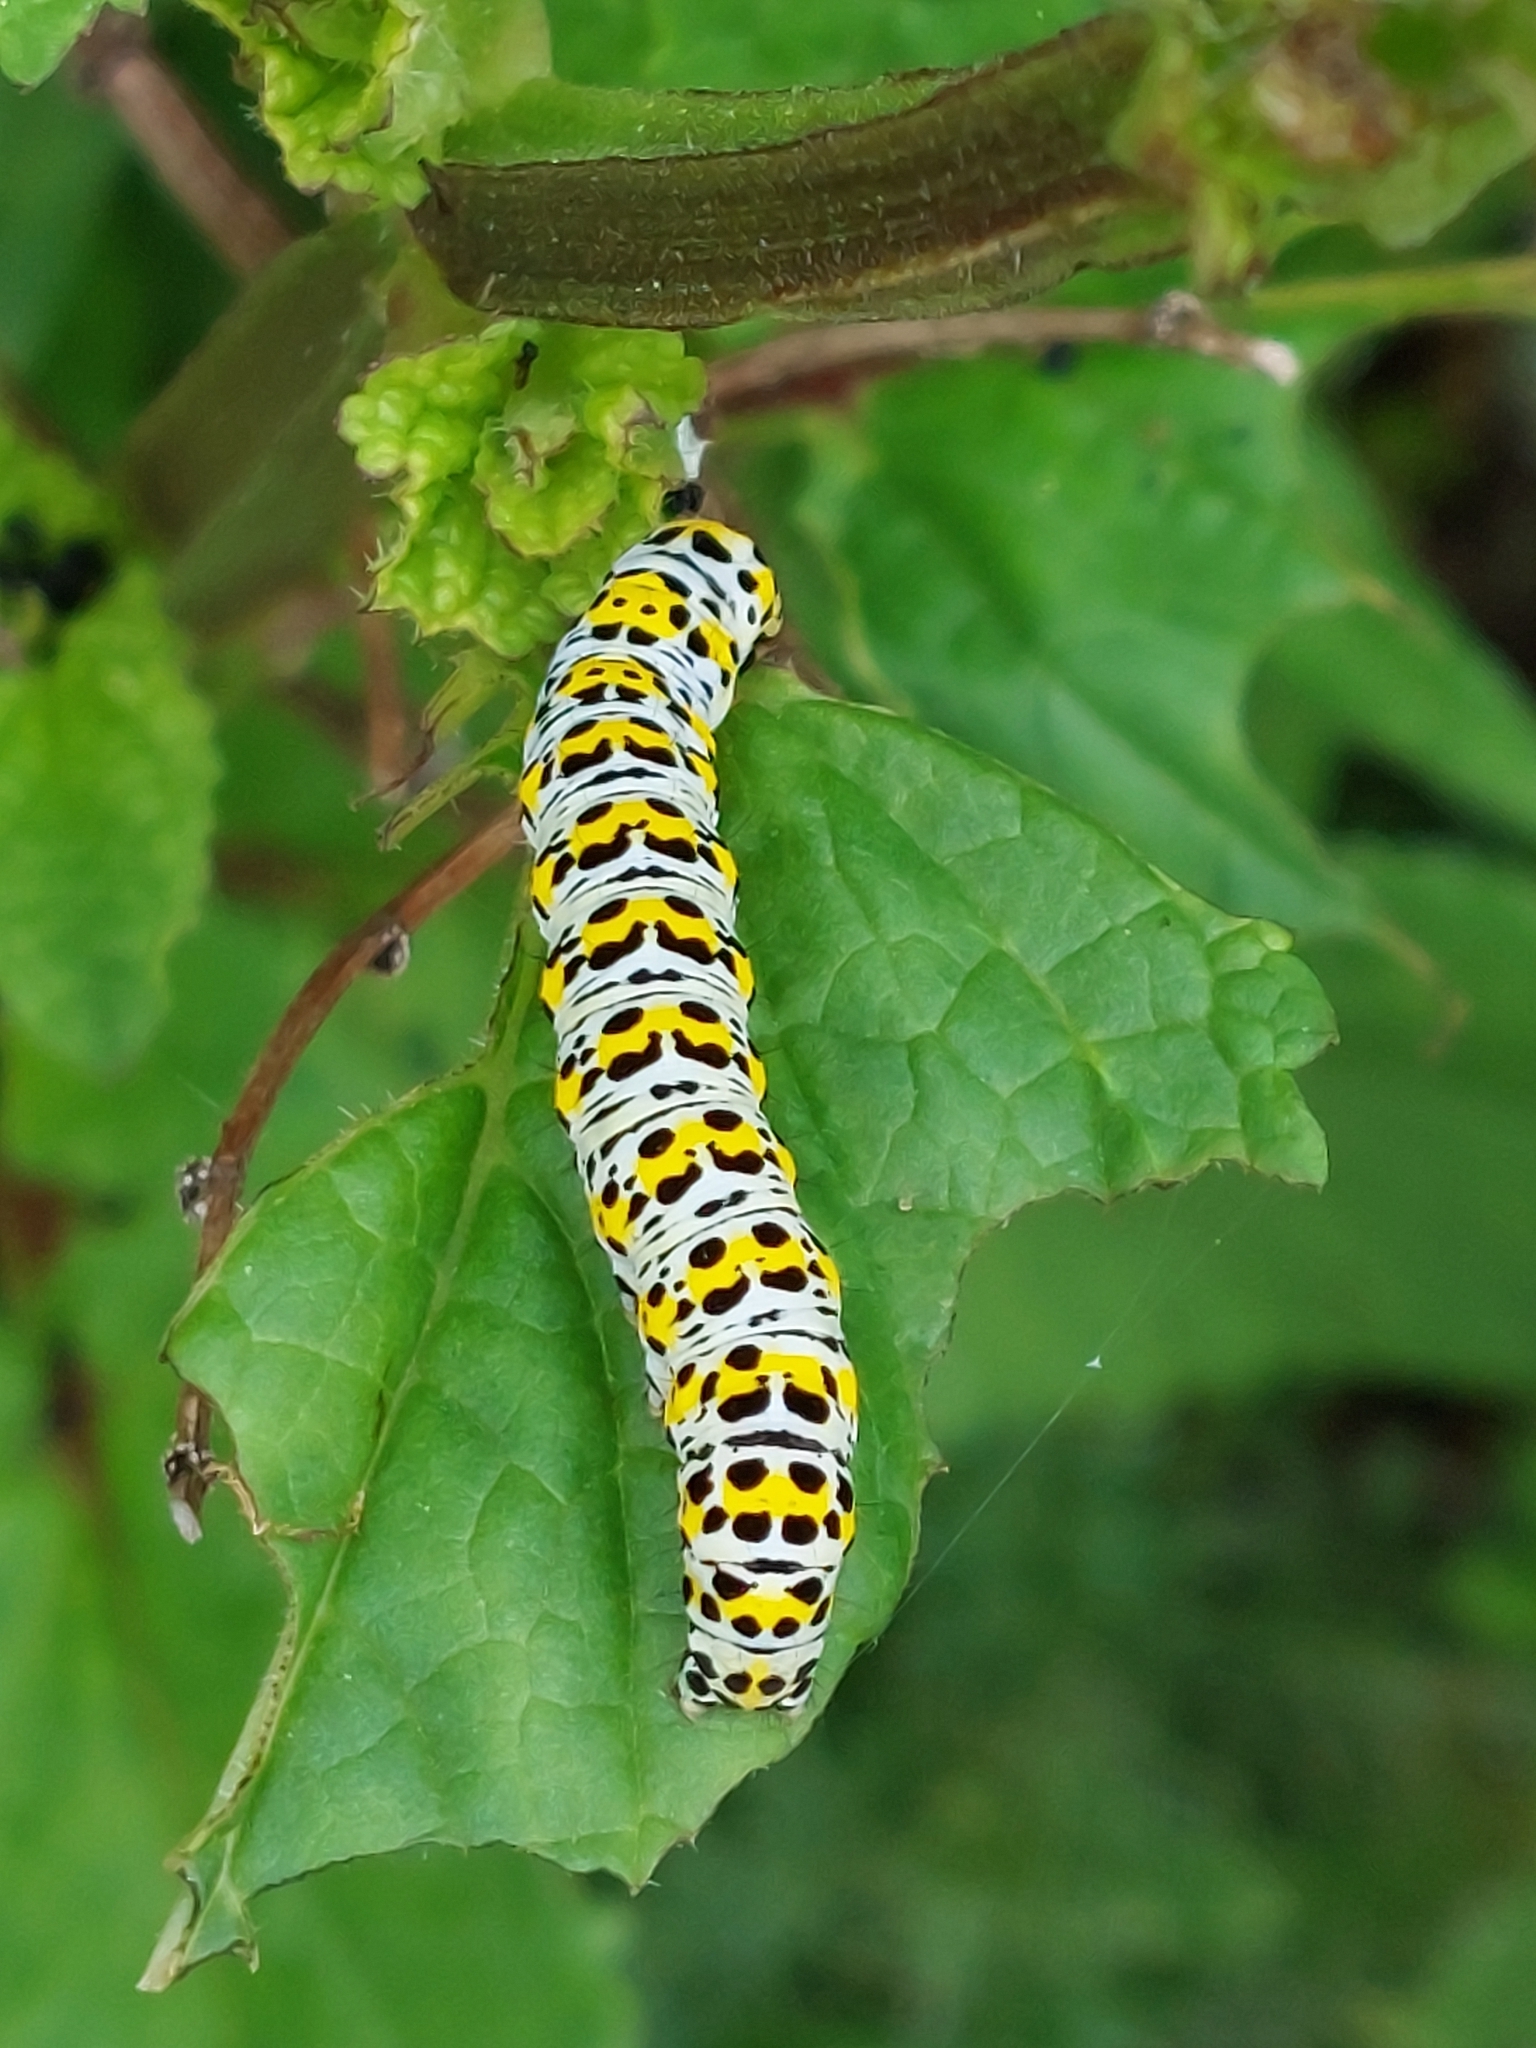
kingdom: Animalia
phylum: Arthropoda
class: Insecta
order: Lepidoptera
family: Noctuidae
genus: Cucullia
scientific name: Cucullia verbasci
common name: Mullein
